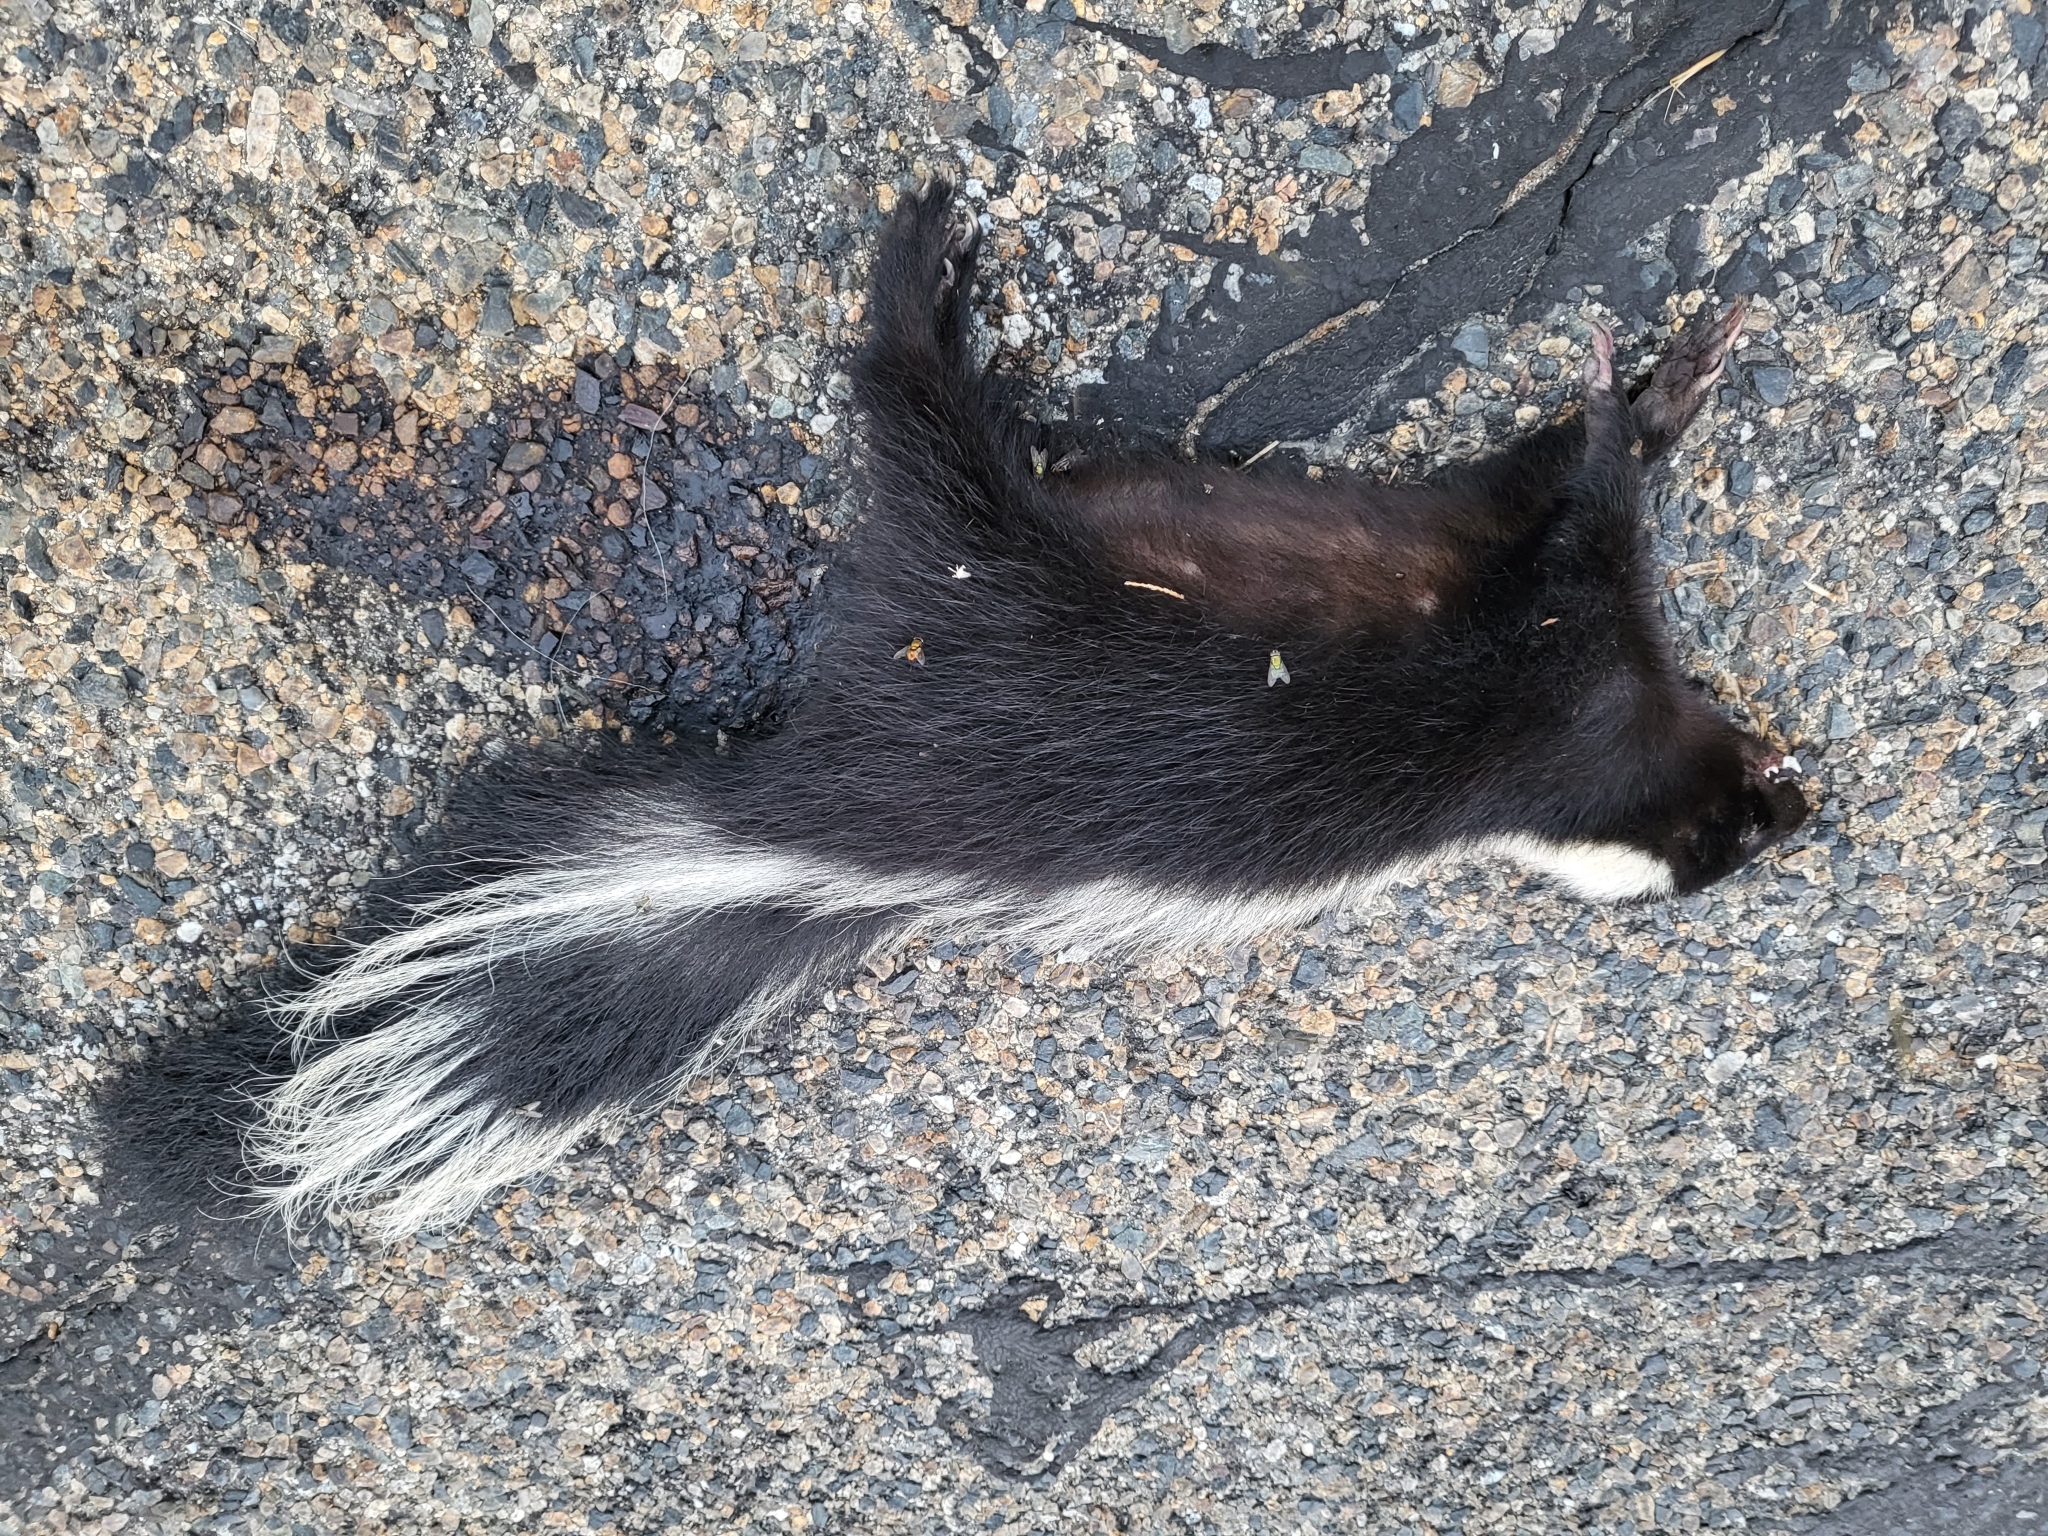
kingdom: Animalia
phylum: Chordata
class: Mammalia
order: Carnivora
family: Mephitidae
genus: Mephitis
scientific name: Mephitis mephitis
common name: Striped skunk
